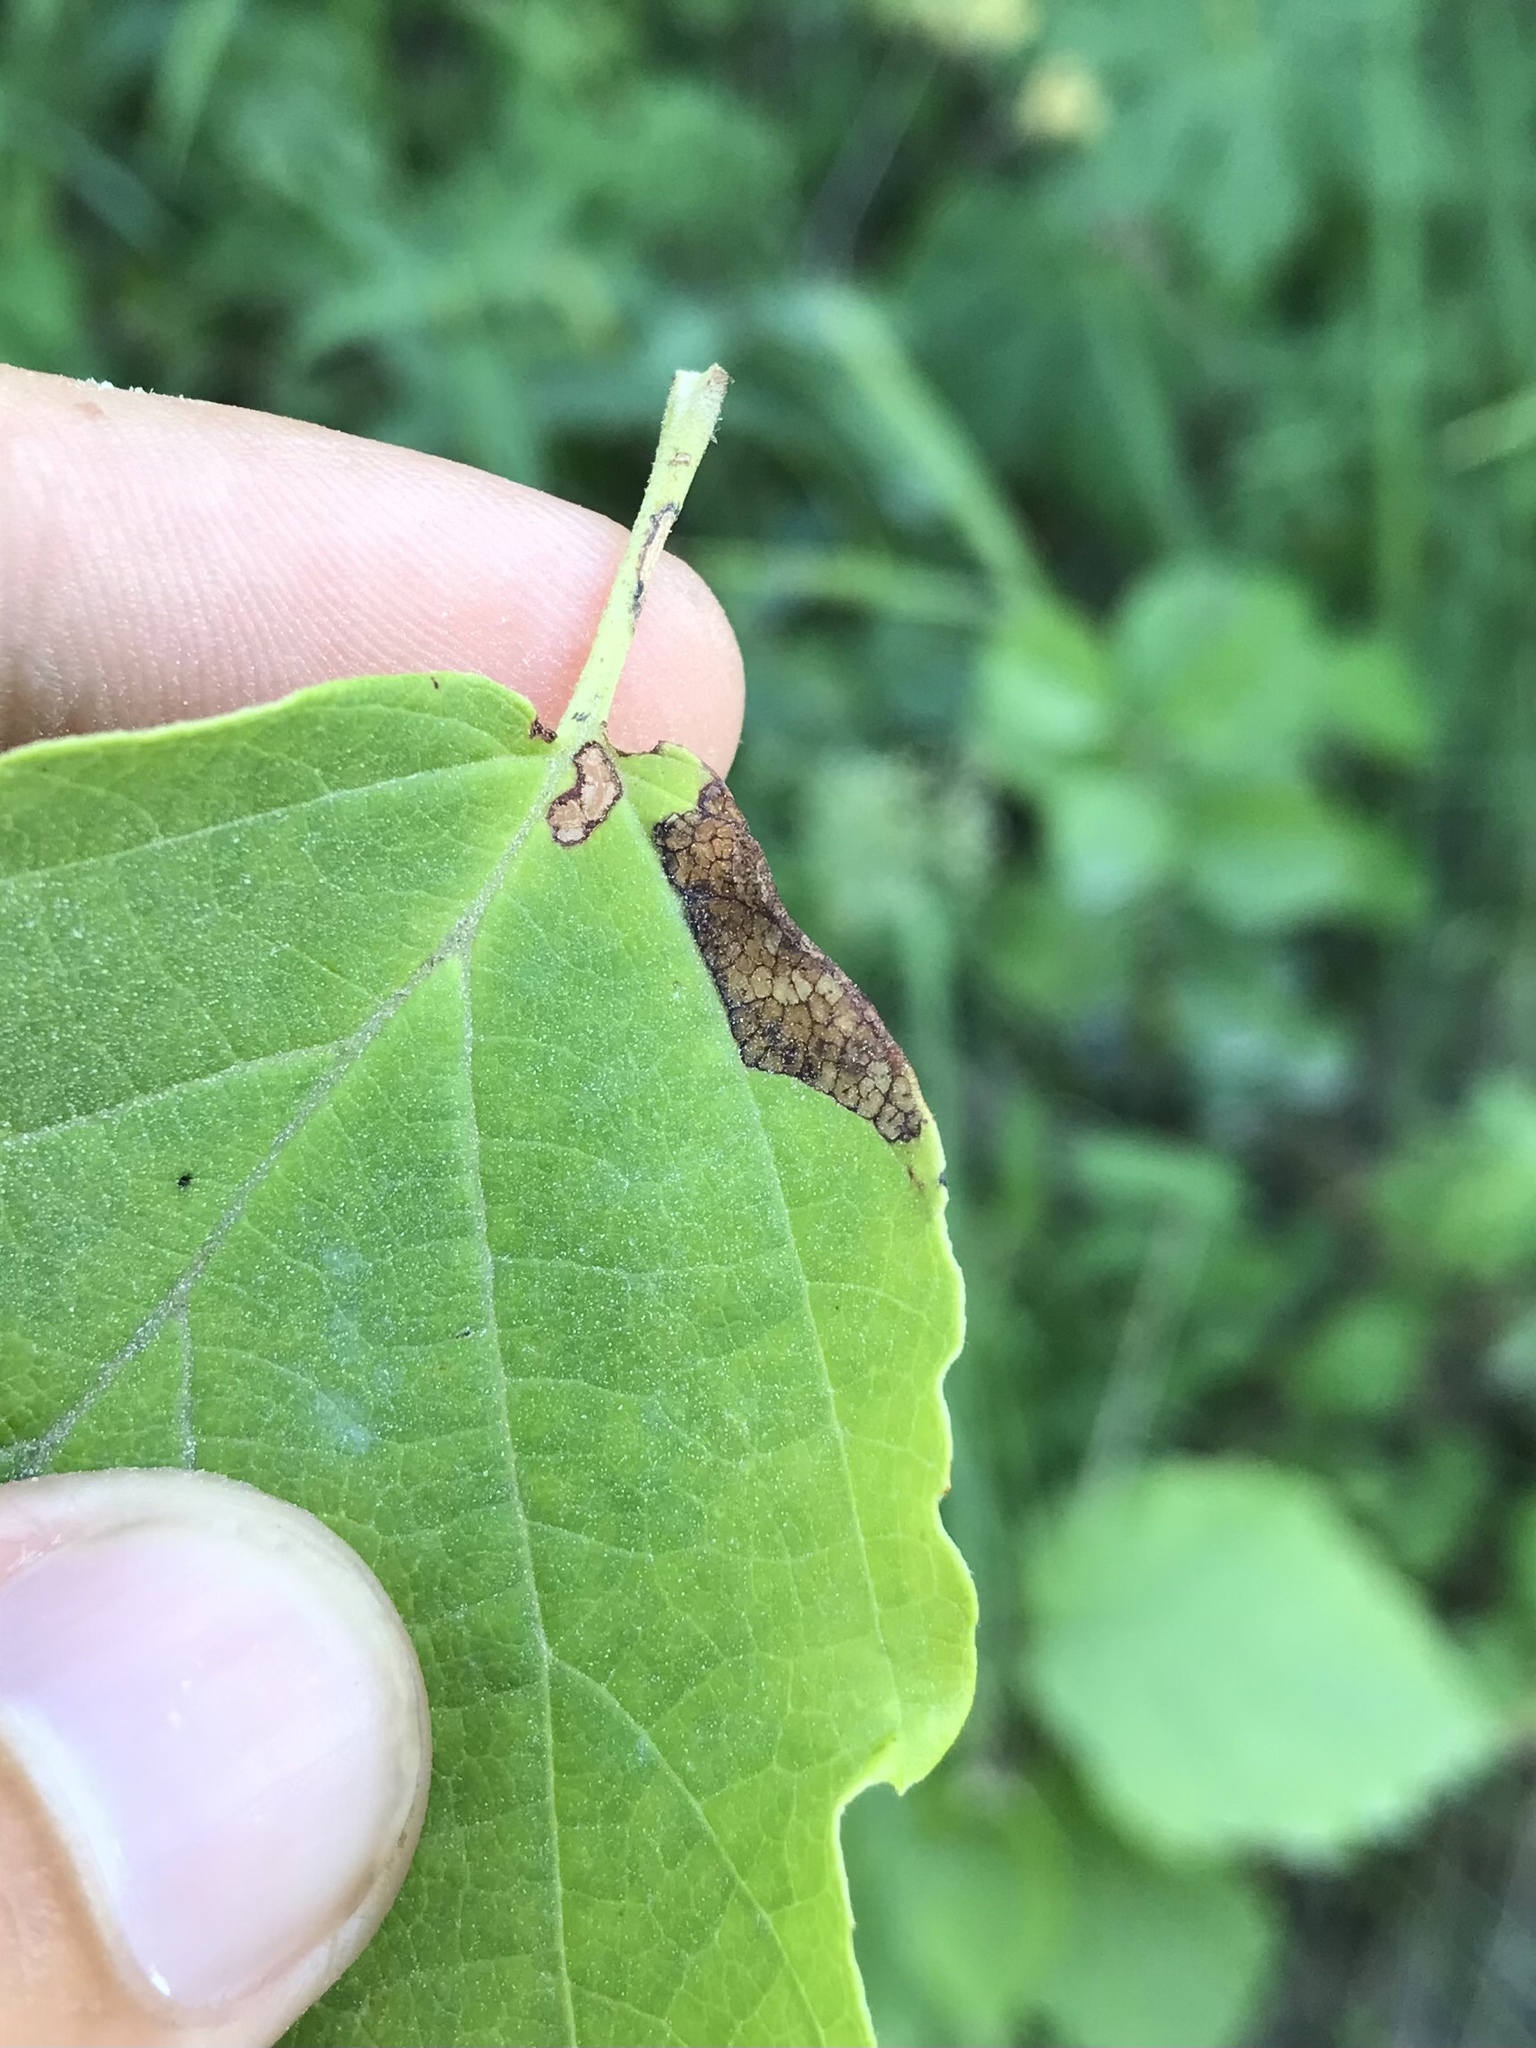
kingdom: Animalia
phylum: Arthropoda
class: Insecta
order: Lepidoptera
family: Gracillariidae
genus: Caloptilia
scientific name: Caloptilia superbifrontella
